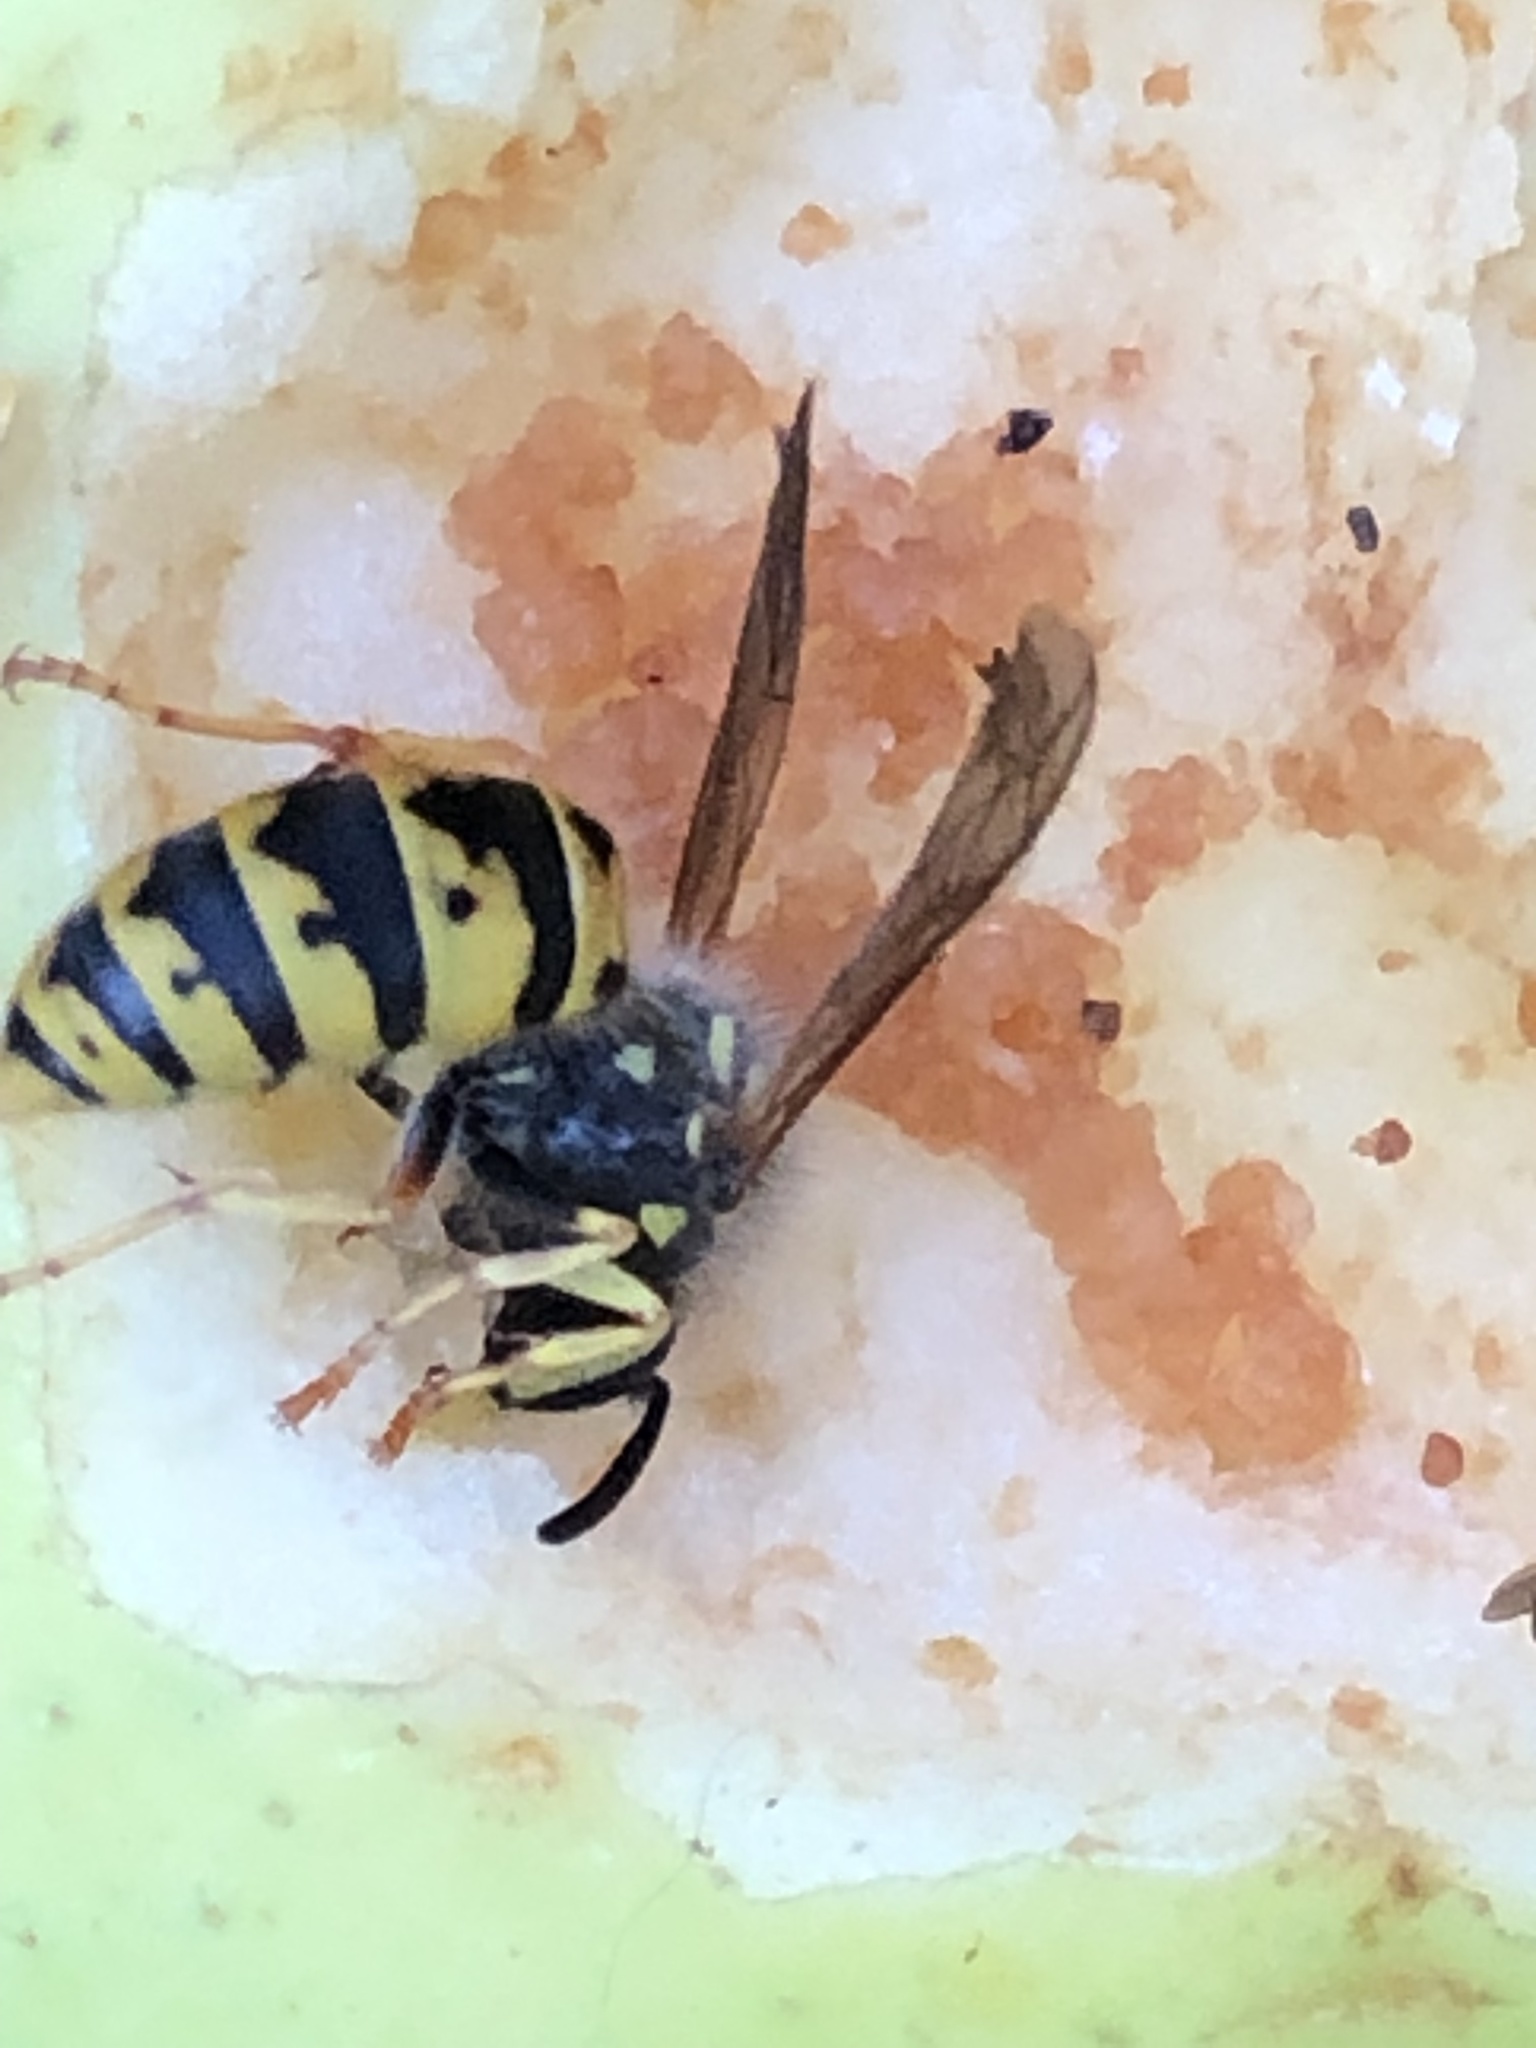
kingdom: Animalia
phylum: Arthropoda
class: Insecta
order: Hymenoptera
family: Vespidae
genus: Vespula
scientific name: Vespula germanica
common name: German wasp
